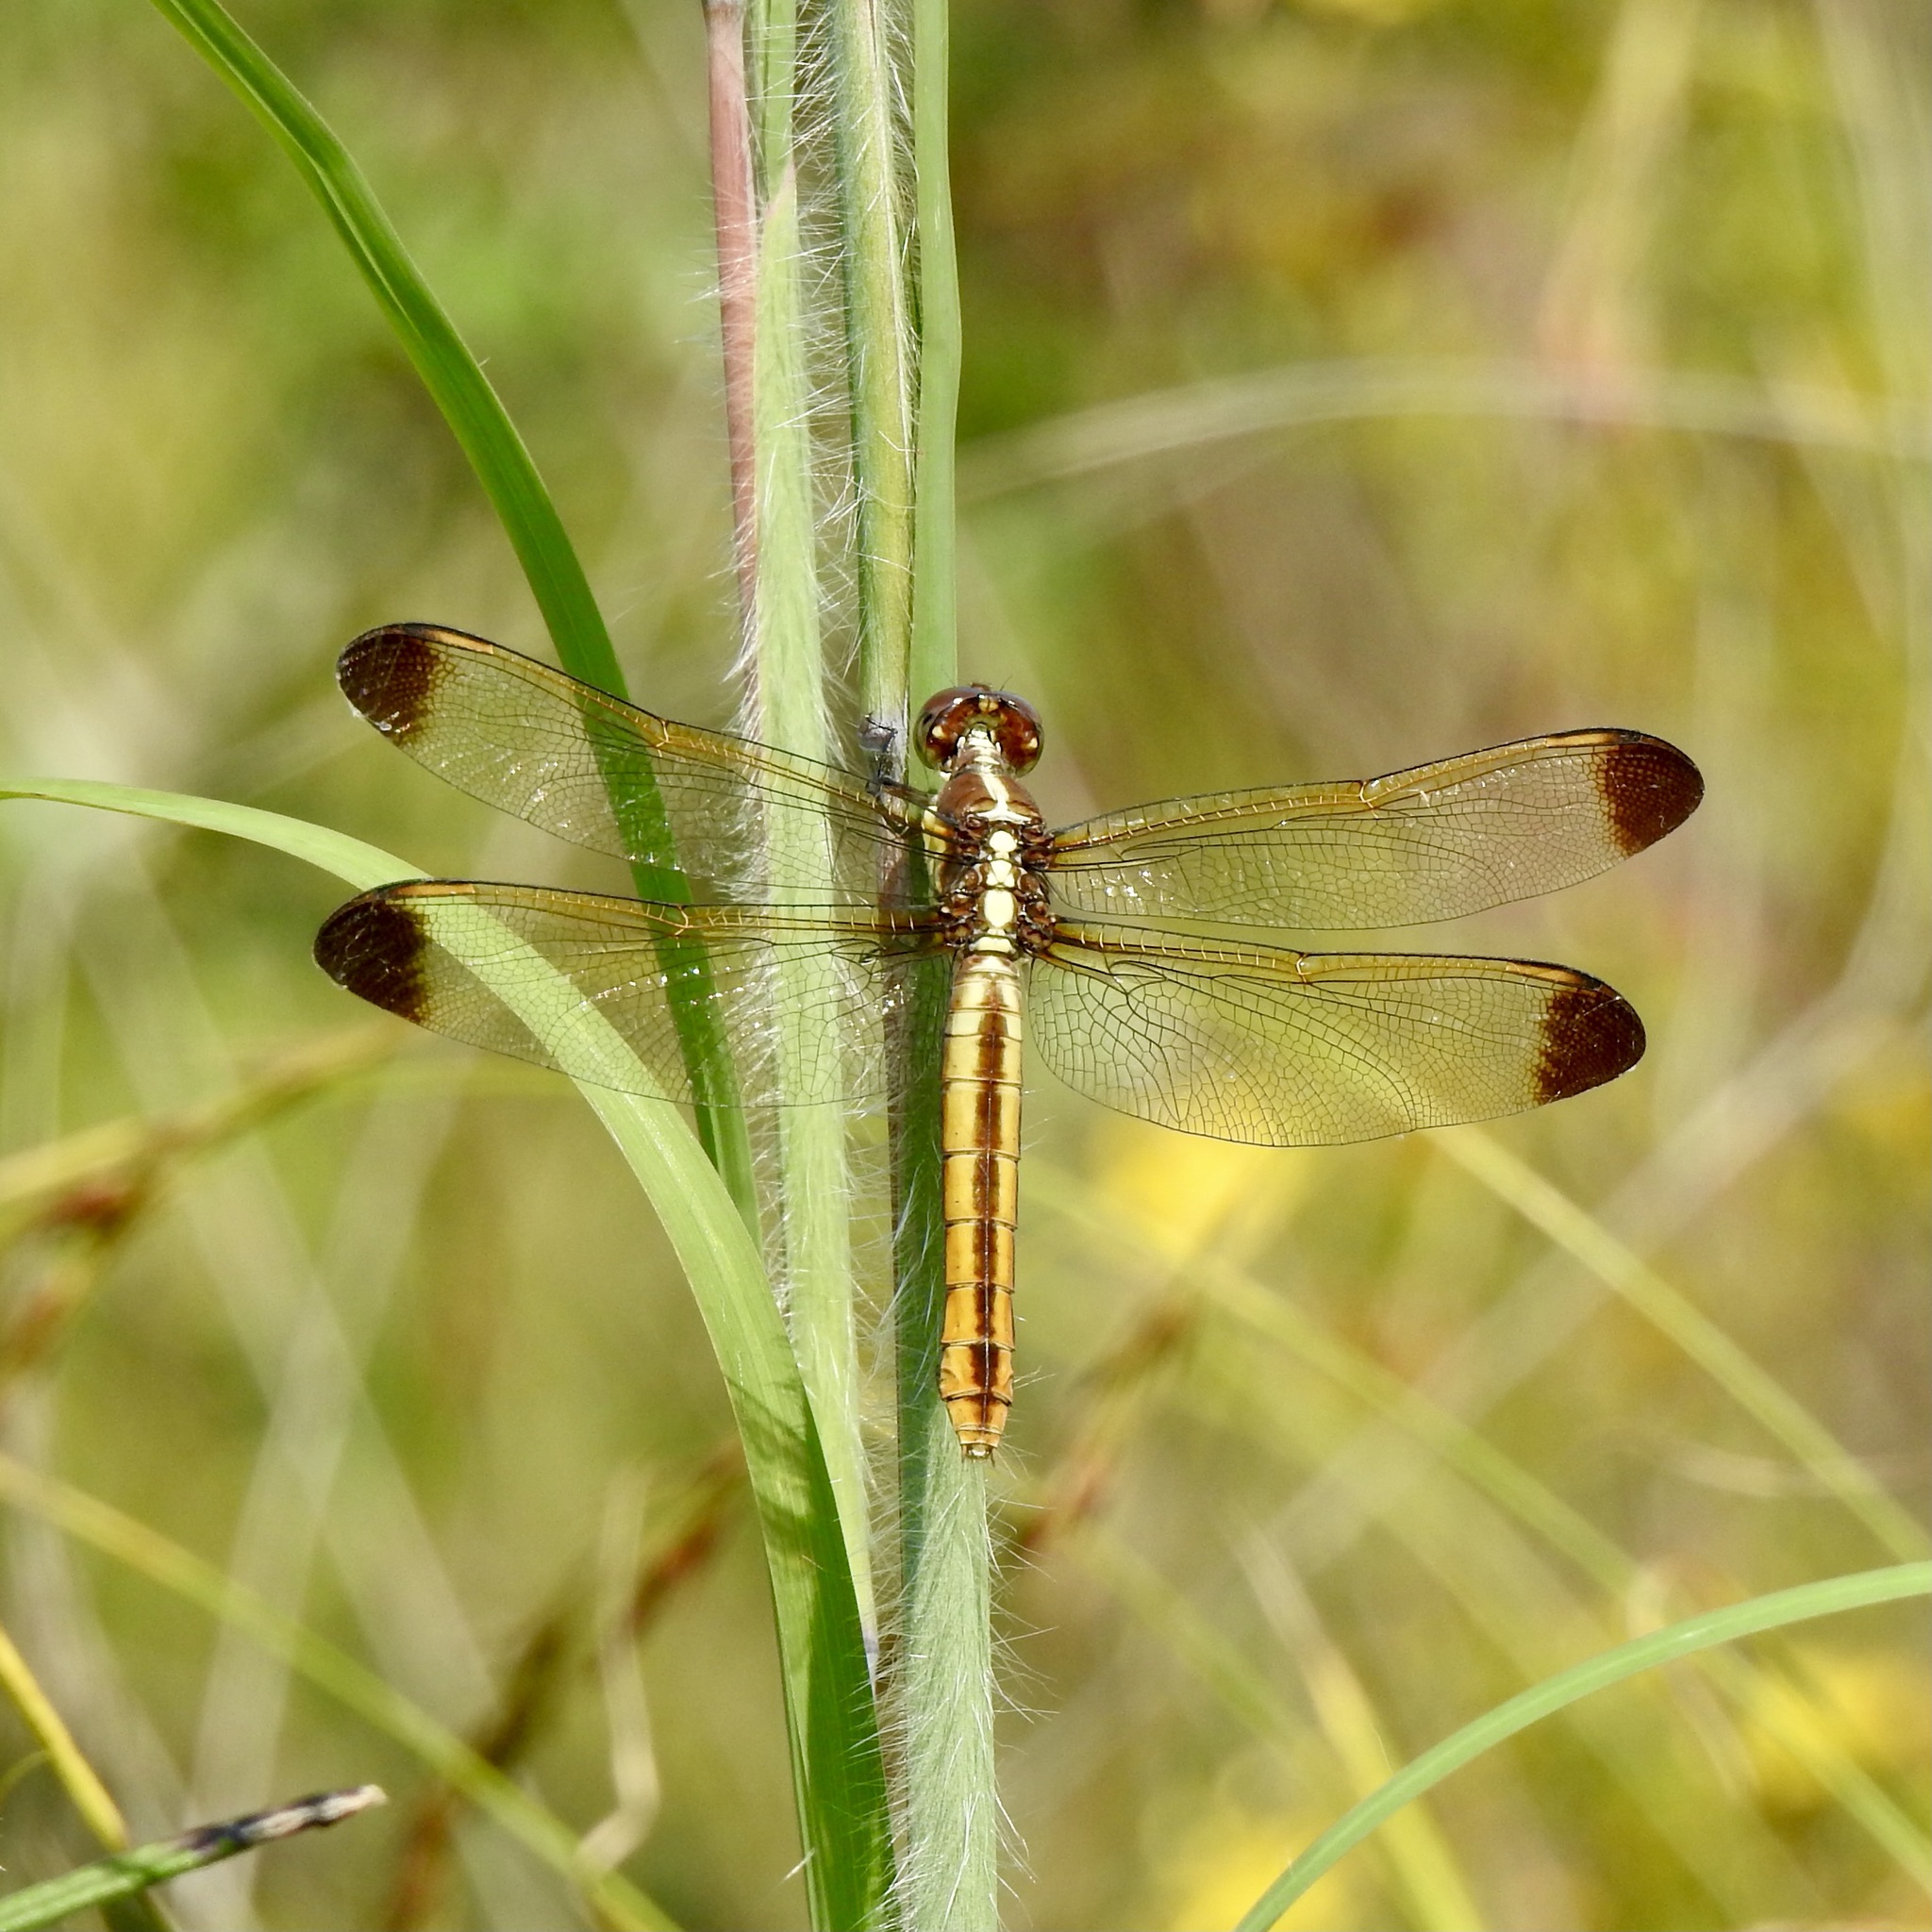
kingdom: Animalia
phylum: Arthropoda
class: Insecta
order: Odonata
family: Libellulidae
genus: Libellula
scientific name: Libellula flavida
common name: Yellow-sided skimmer
